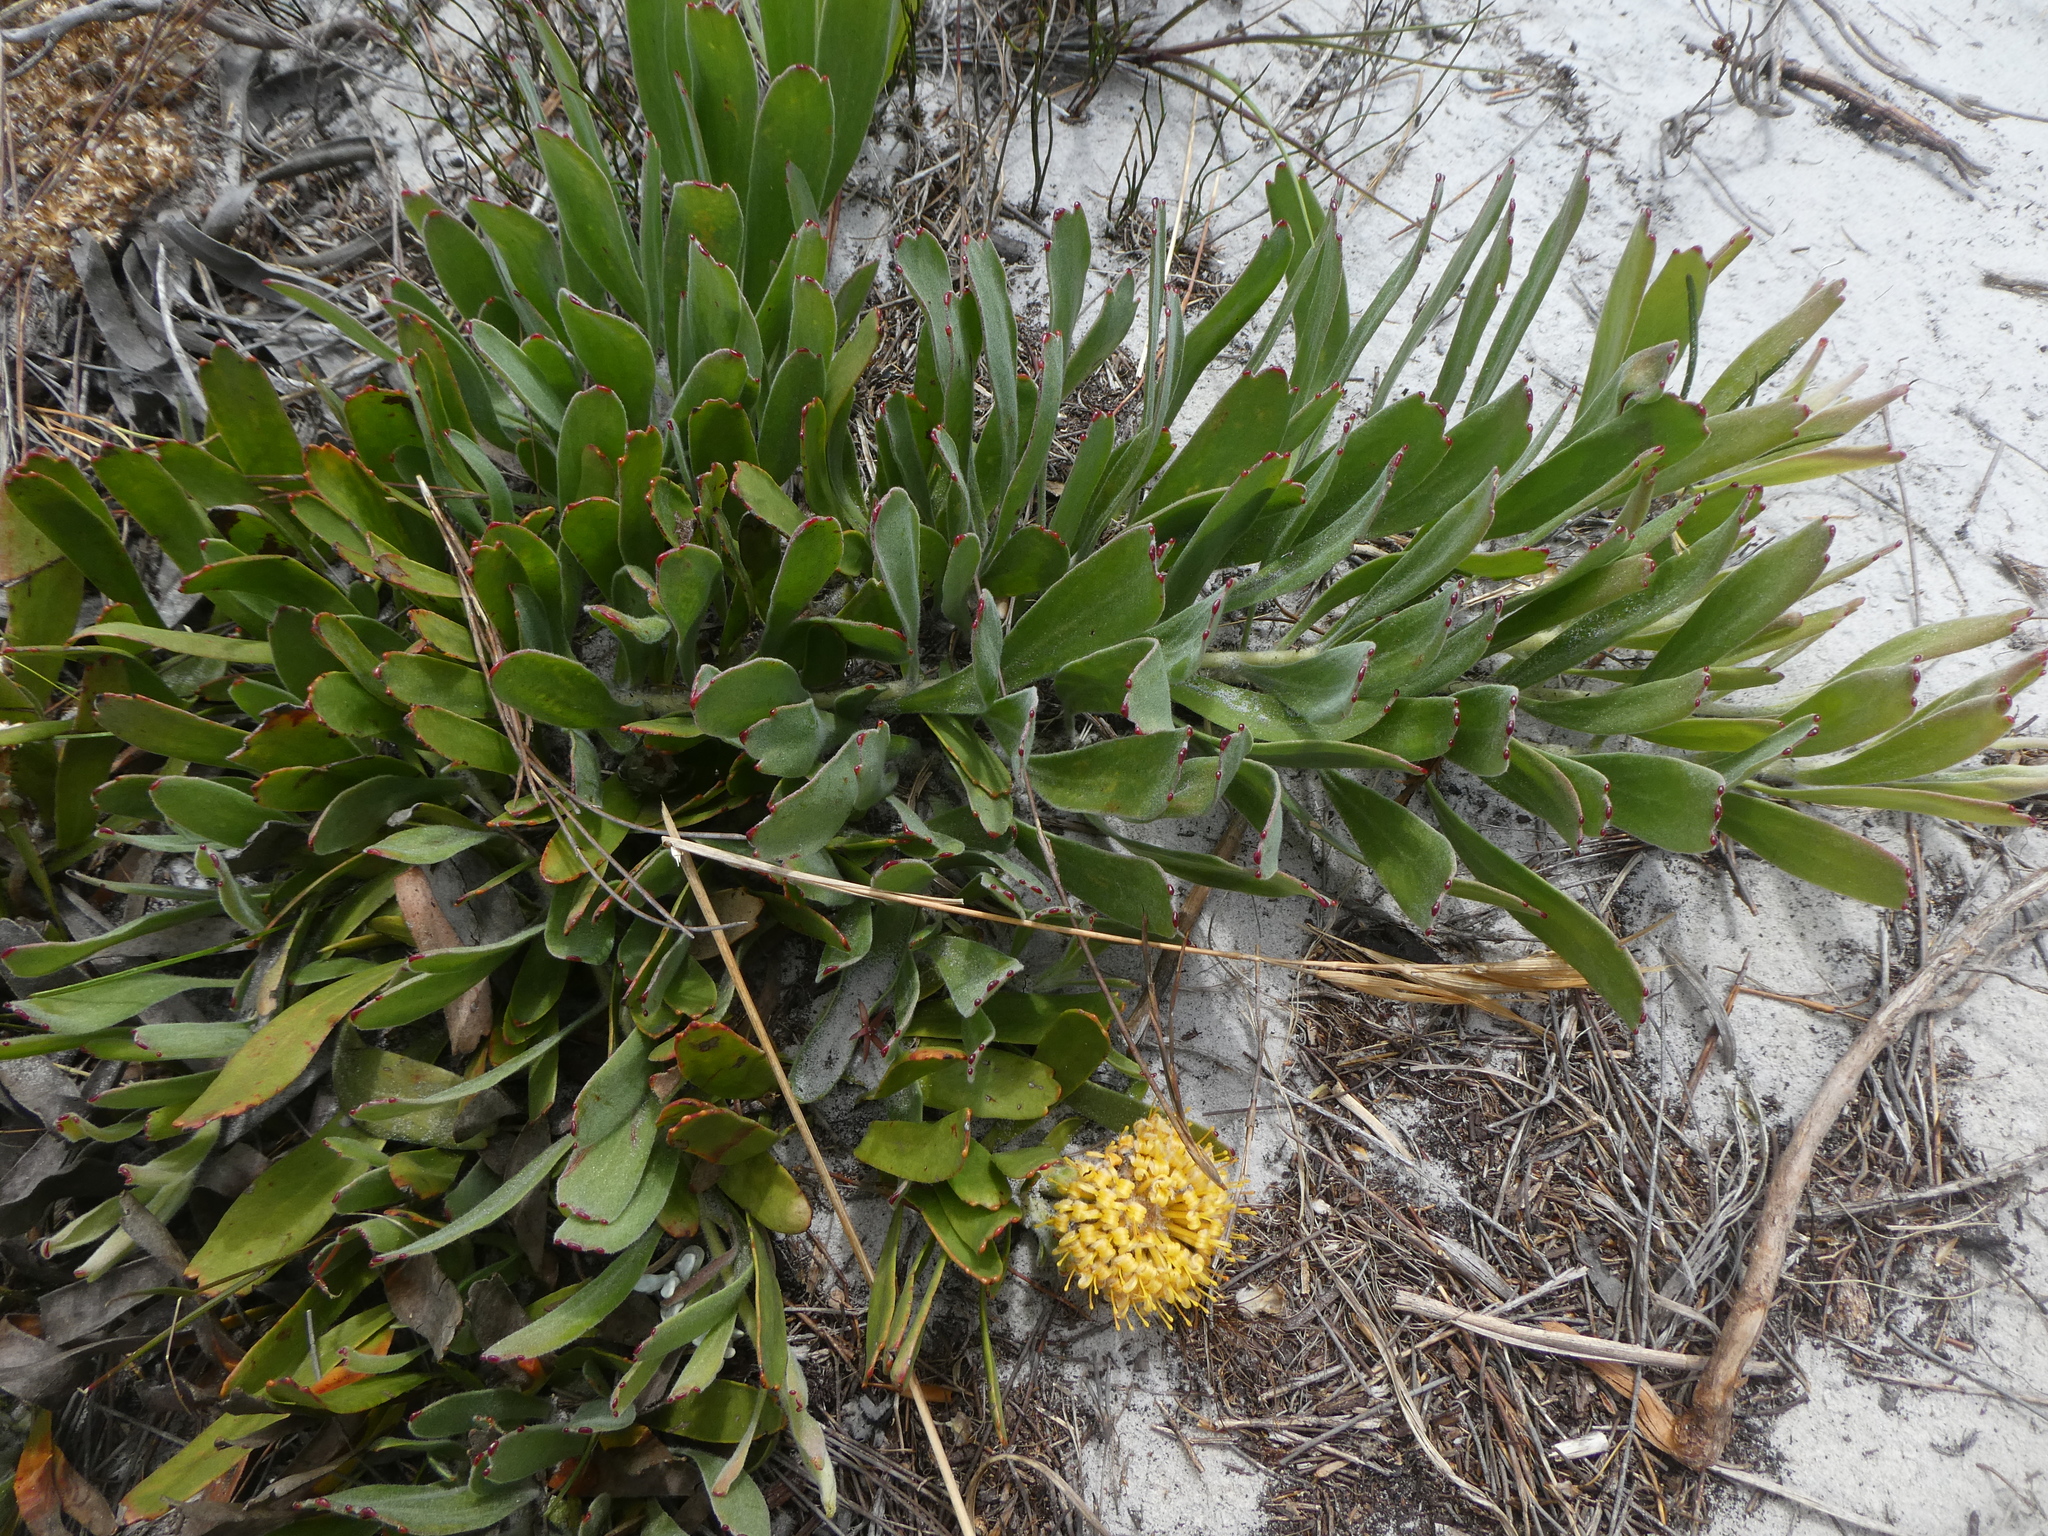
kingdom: Plantae
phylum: Tracheophyta
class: Magnoliopsida
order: Proteales
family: Proteaceae
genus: Leucospermum
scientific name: Leucospermum hypophyllocarpodendron
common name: Snakestem pincushion
